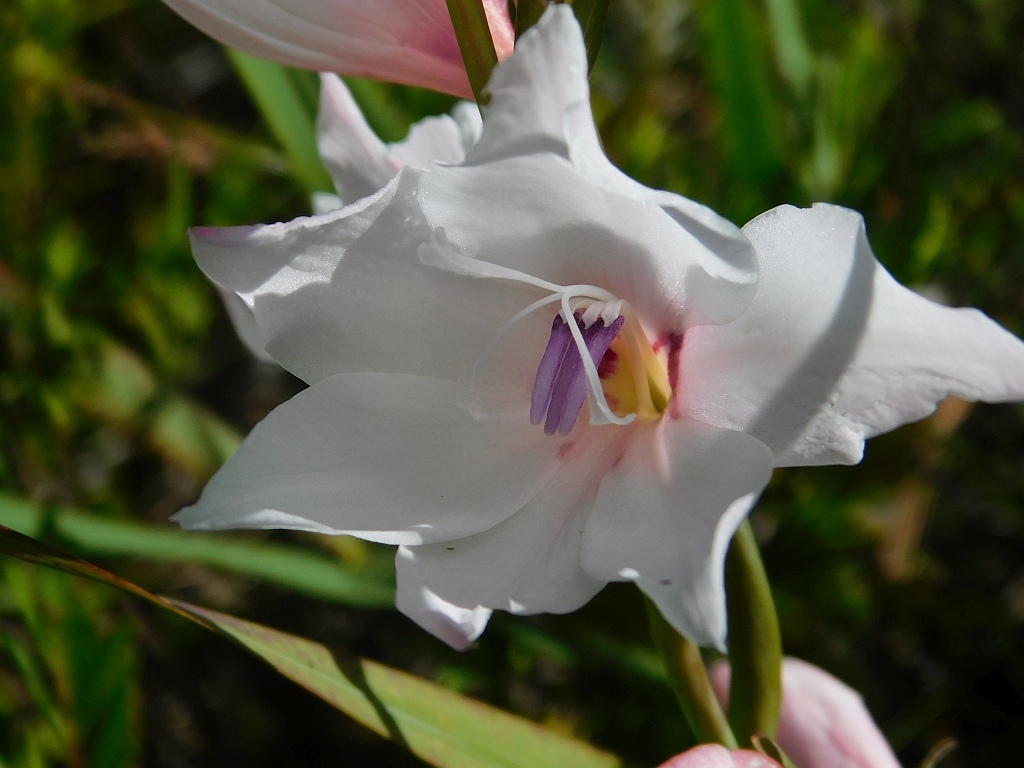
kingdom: Plantae
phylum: Tracheophyta
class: Liliopsida
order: Asparagales
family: Iridaceae
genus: Gladiolus
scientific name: Gladiolus carneus
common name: Painted-lady
